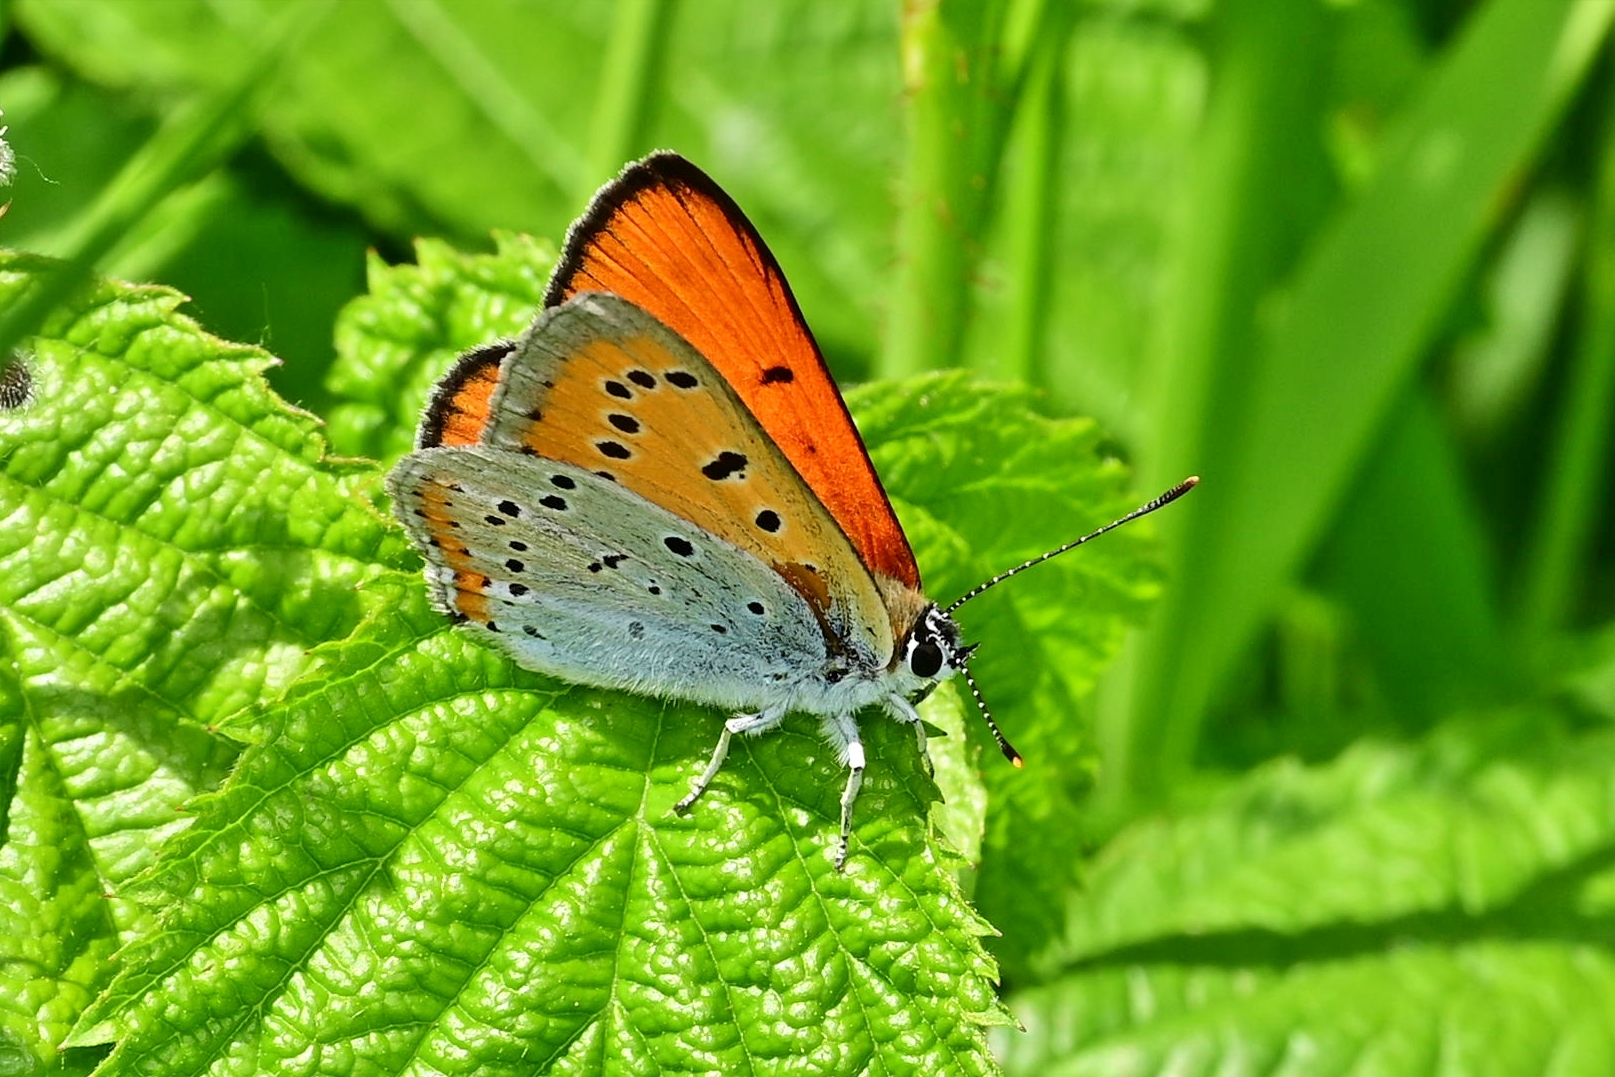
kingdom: Animalia
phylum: Arthropoda
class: Insecta
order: Lepidoptera
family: Lycaenidae
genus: Lycaena
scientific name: Lycaena dispar
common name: Large copper
